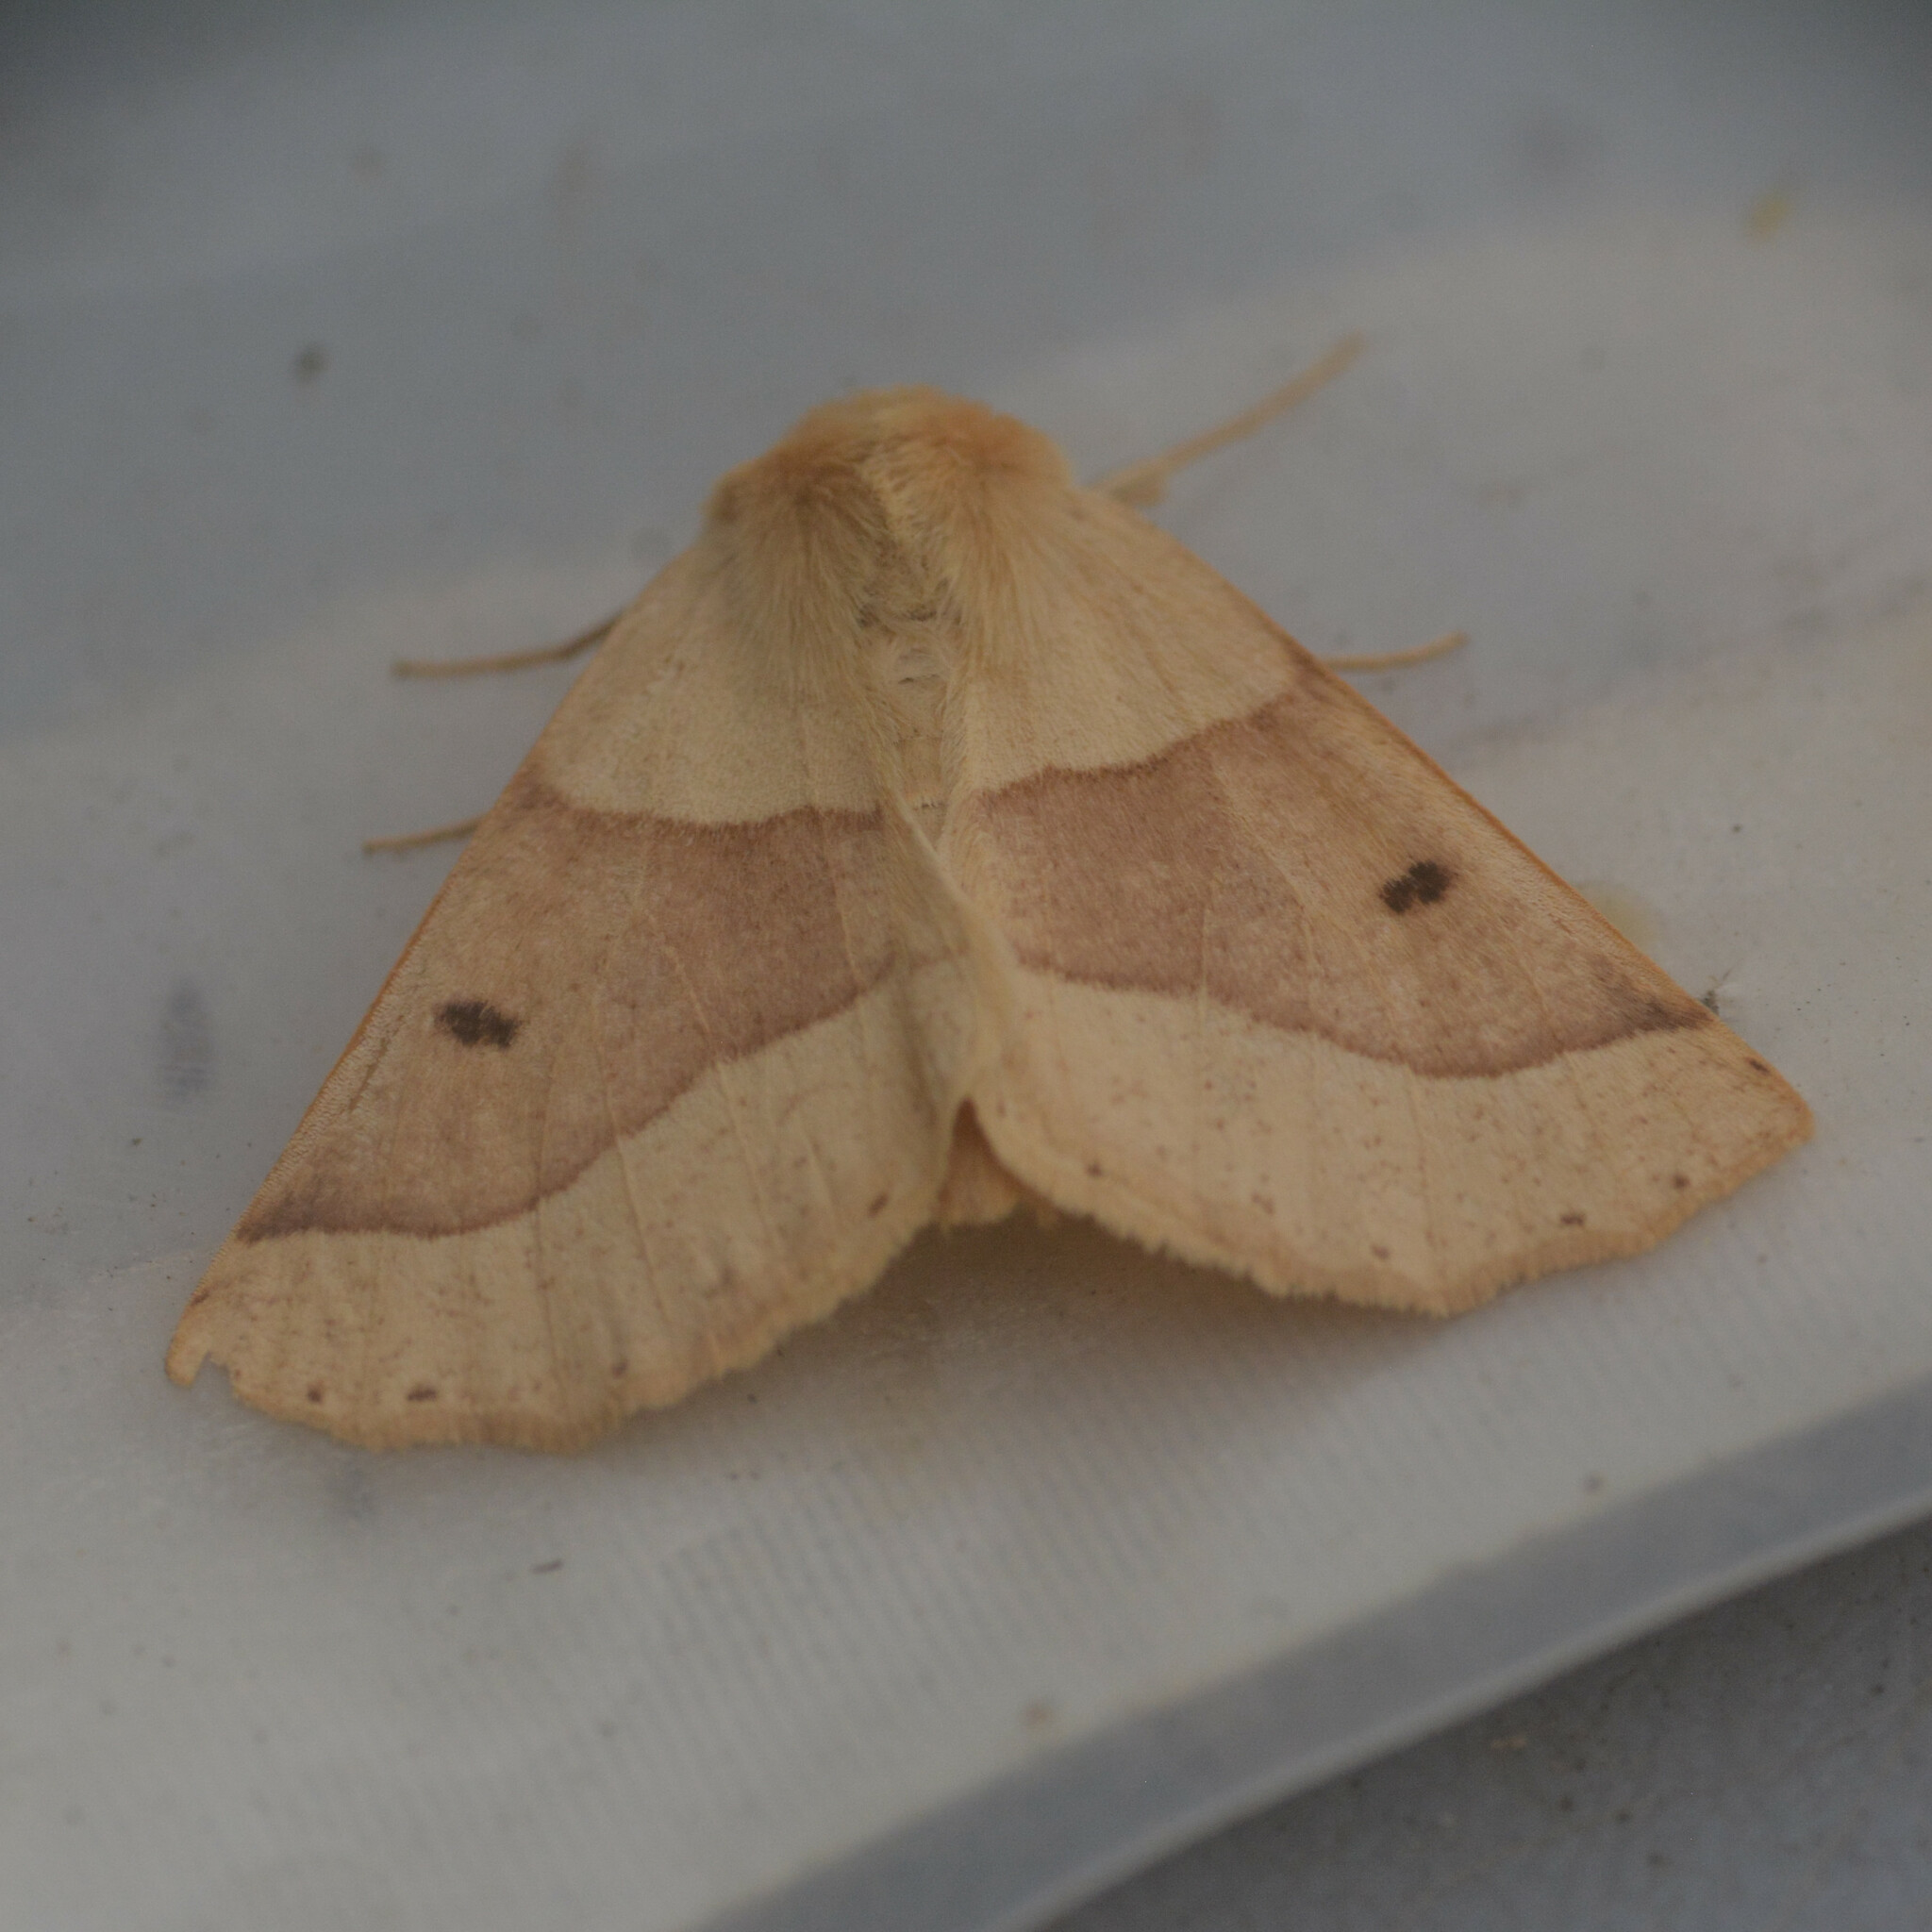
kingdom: Animalia
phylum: Arthropoda
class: Insecta
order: Lepidoptera
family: Geometridae
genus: Crocallis
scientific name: Crocallis elinguaria
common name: Scalloped oak
